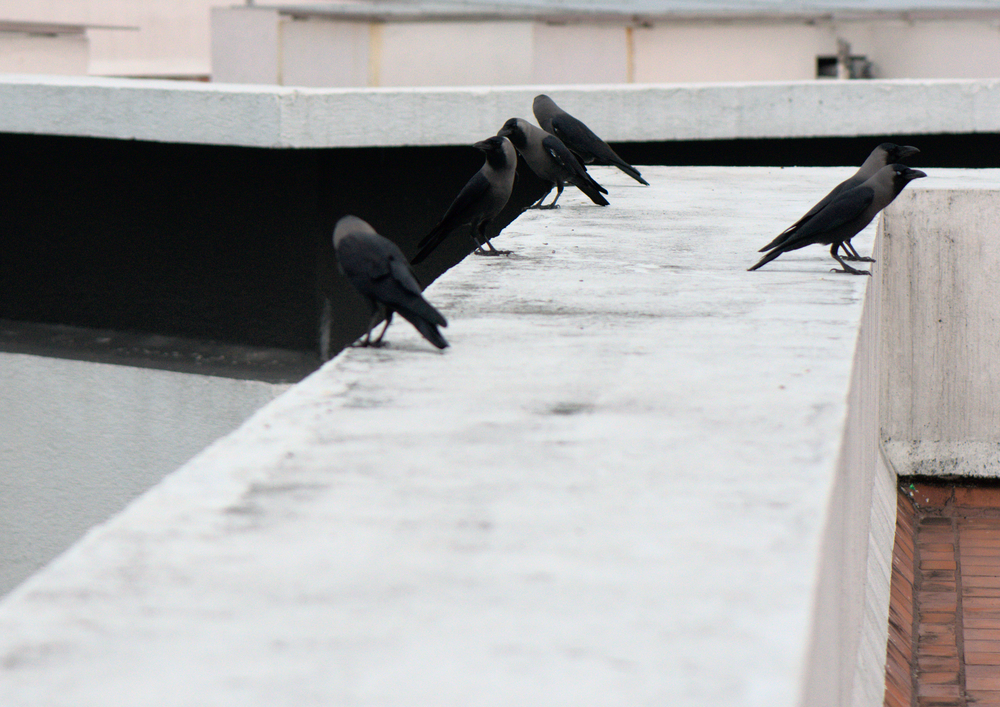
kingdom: Animalia
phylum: Chordata
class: Aves
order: Passeriformes
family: Corvidae
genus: Corvus
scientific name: Corvus splendens
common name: House crow
